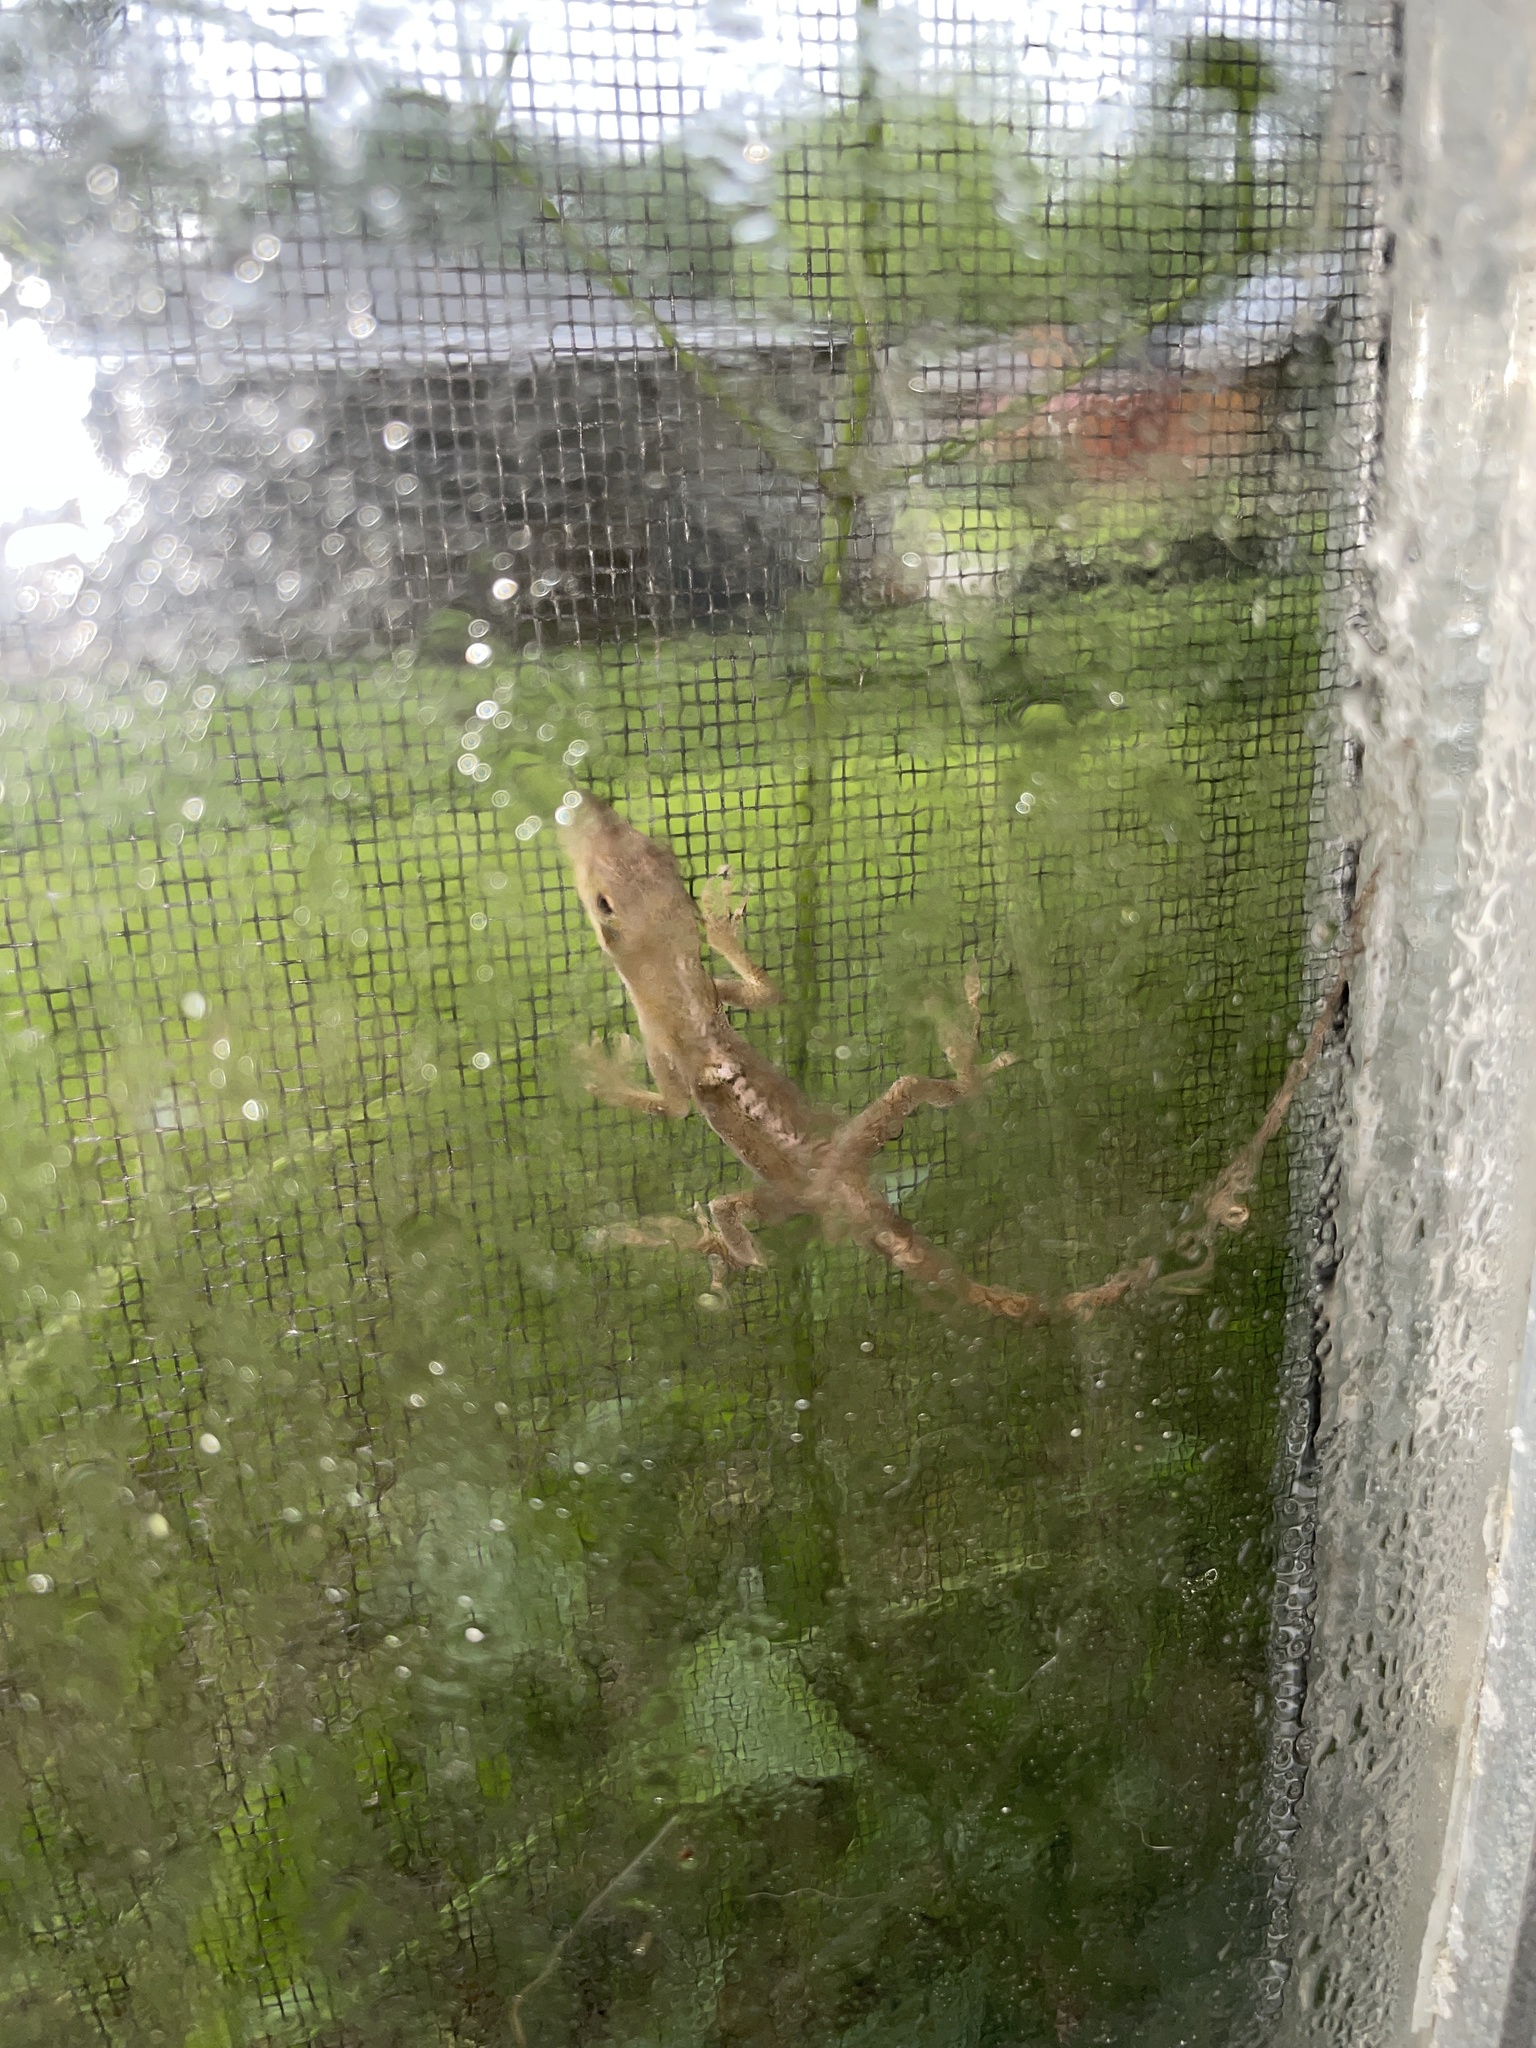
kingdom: Animalia
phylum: Chordata
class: Squamata
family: Dactyloidae
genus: Anolis
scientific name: Anolis carolinensis
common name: Green anole
